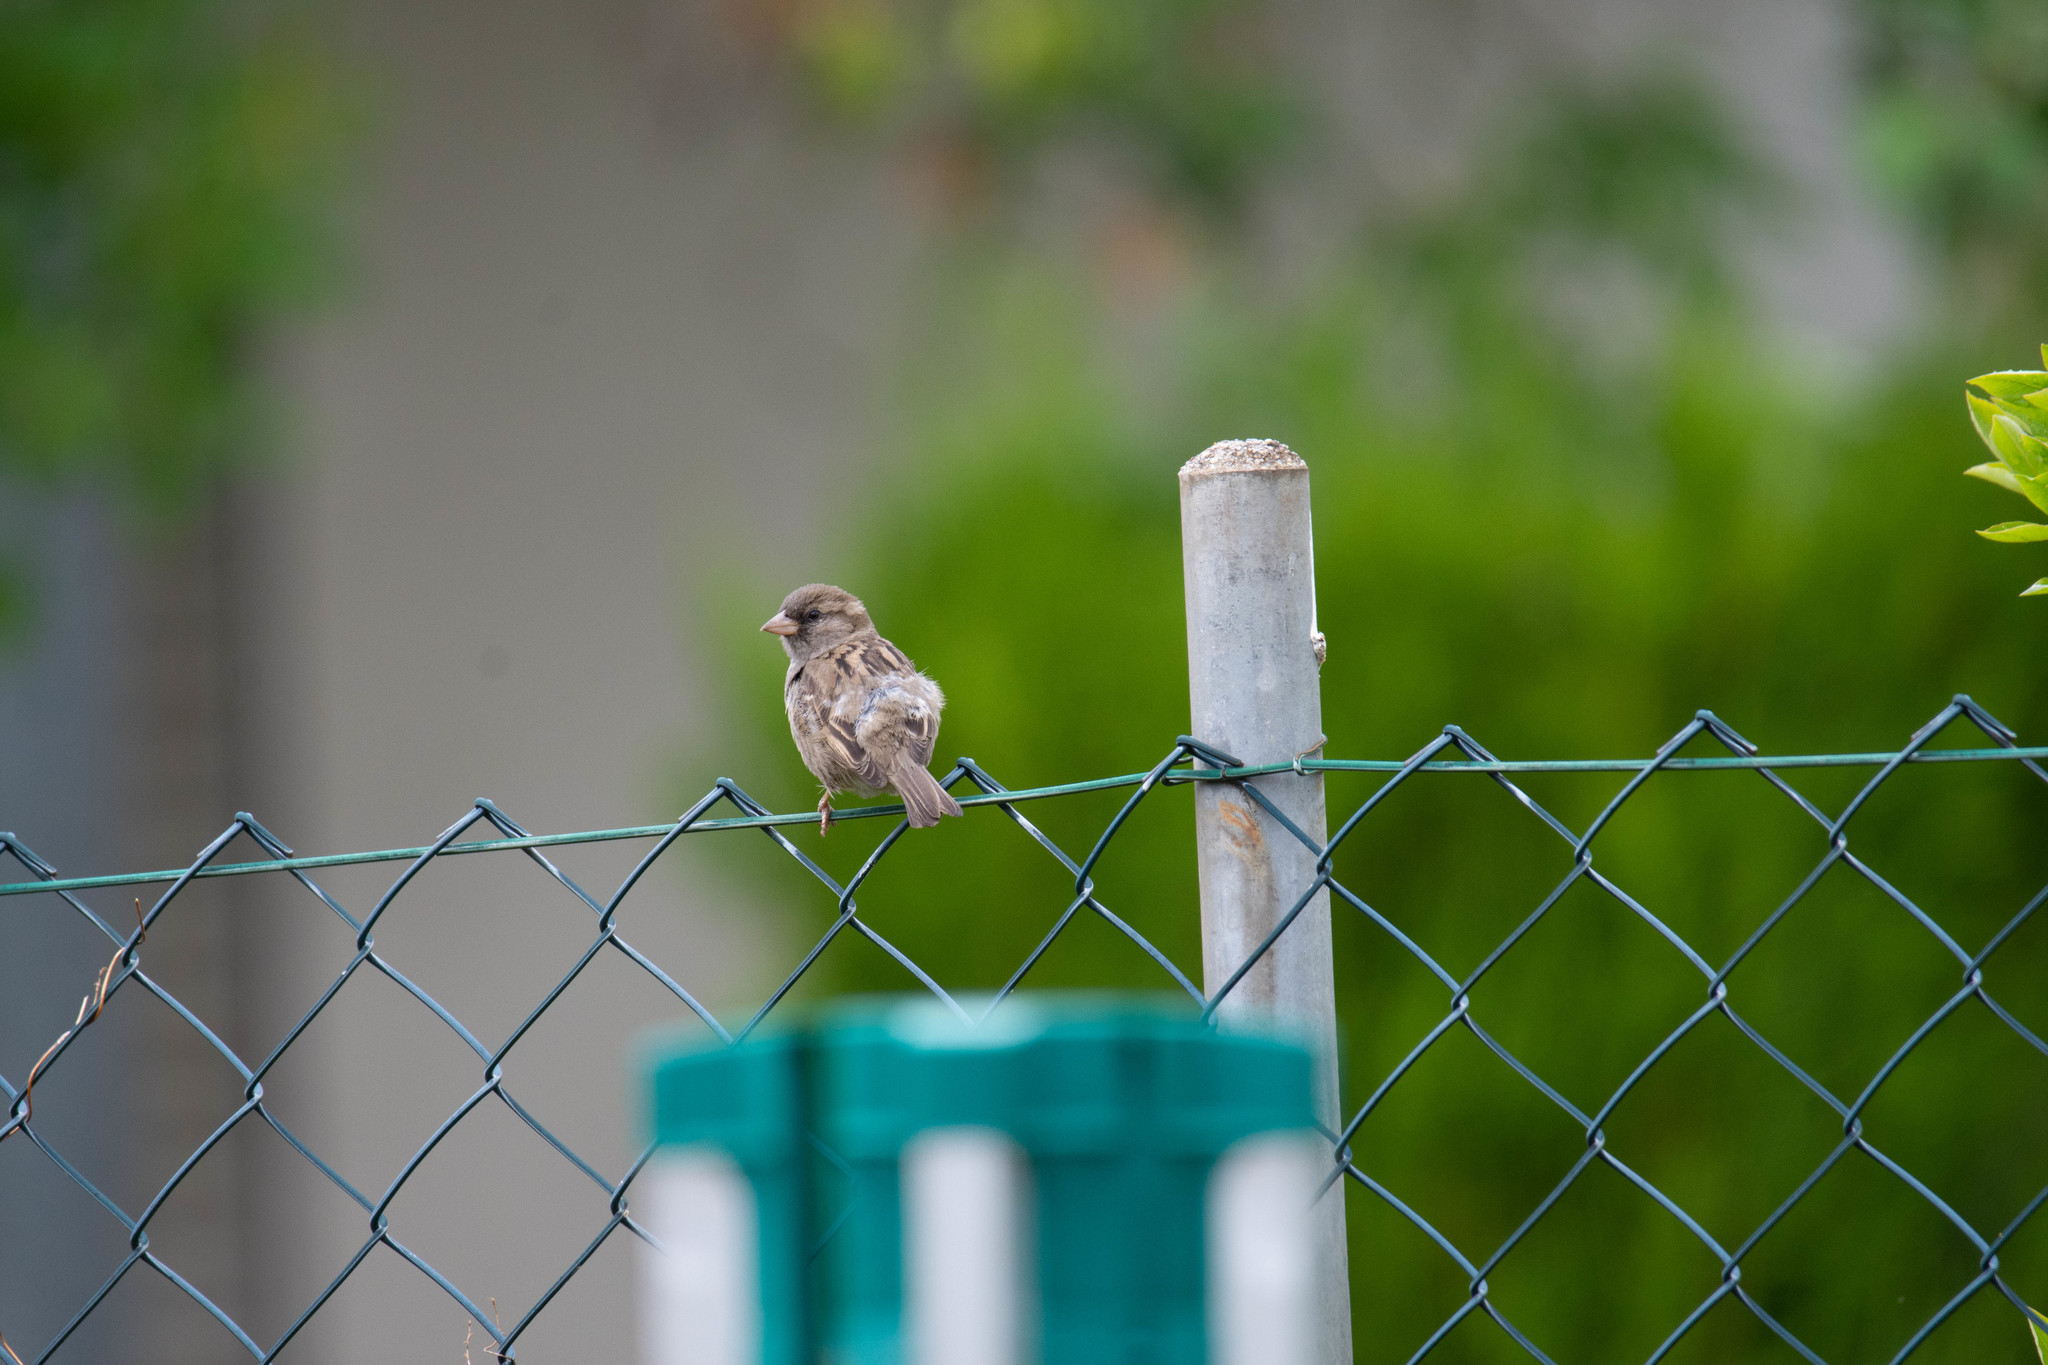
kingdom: Animalia
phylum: Chordata
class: Aves
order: Passeriformes
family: Passeridae
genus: Passer
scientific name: Passer domesticus
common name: House sparrow
